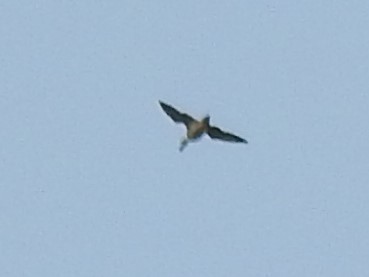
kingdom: Animalia
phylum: Chordata
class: Aves
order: Anseriformes
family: Anatidae
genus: Anas
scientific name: Anas acuta
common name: Northern pintail
